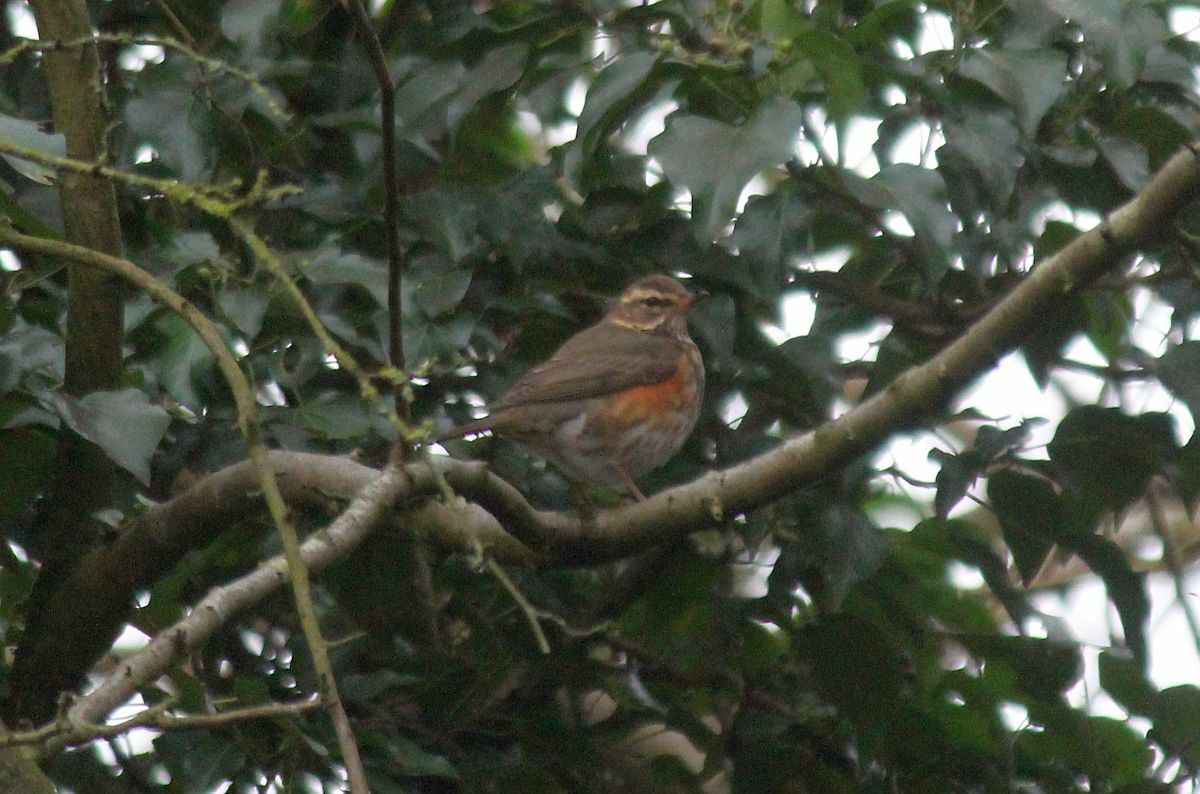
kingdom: Animalia
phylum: Chordata
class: Aves
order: Passeriformes
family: Turdidae
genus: Turdus
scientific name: Turdus iliacus
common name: Redwing
